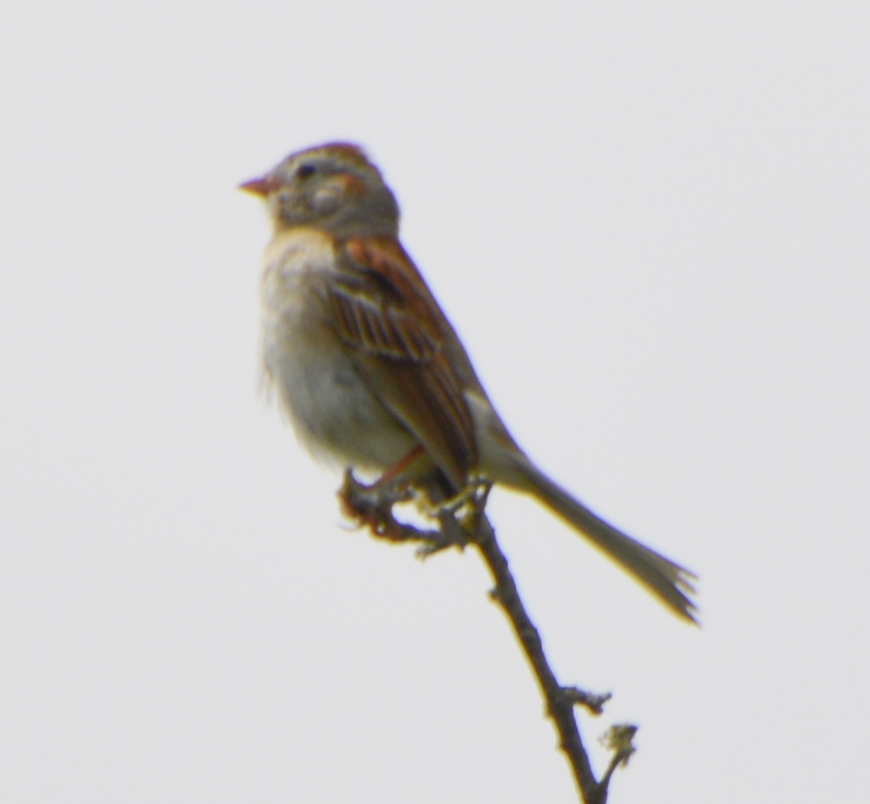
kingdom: Animalia
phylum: Chordata
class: Aves
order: Passeriformes
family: Passerellidae
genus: Spizella
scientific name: Spizella pusilla
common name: Field sparrow
